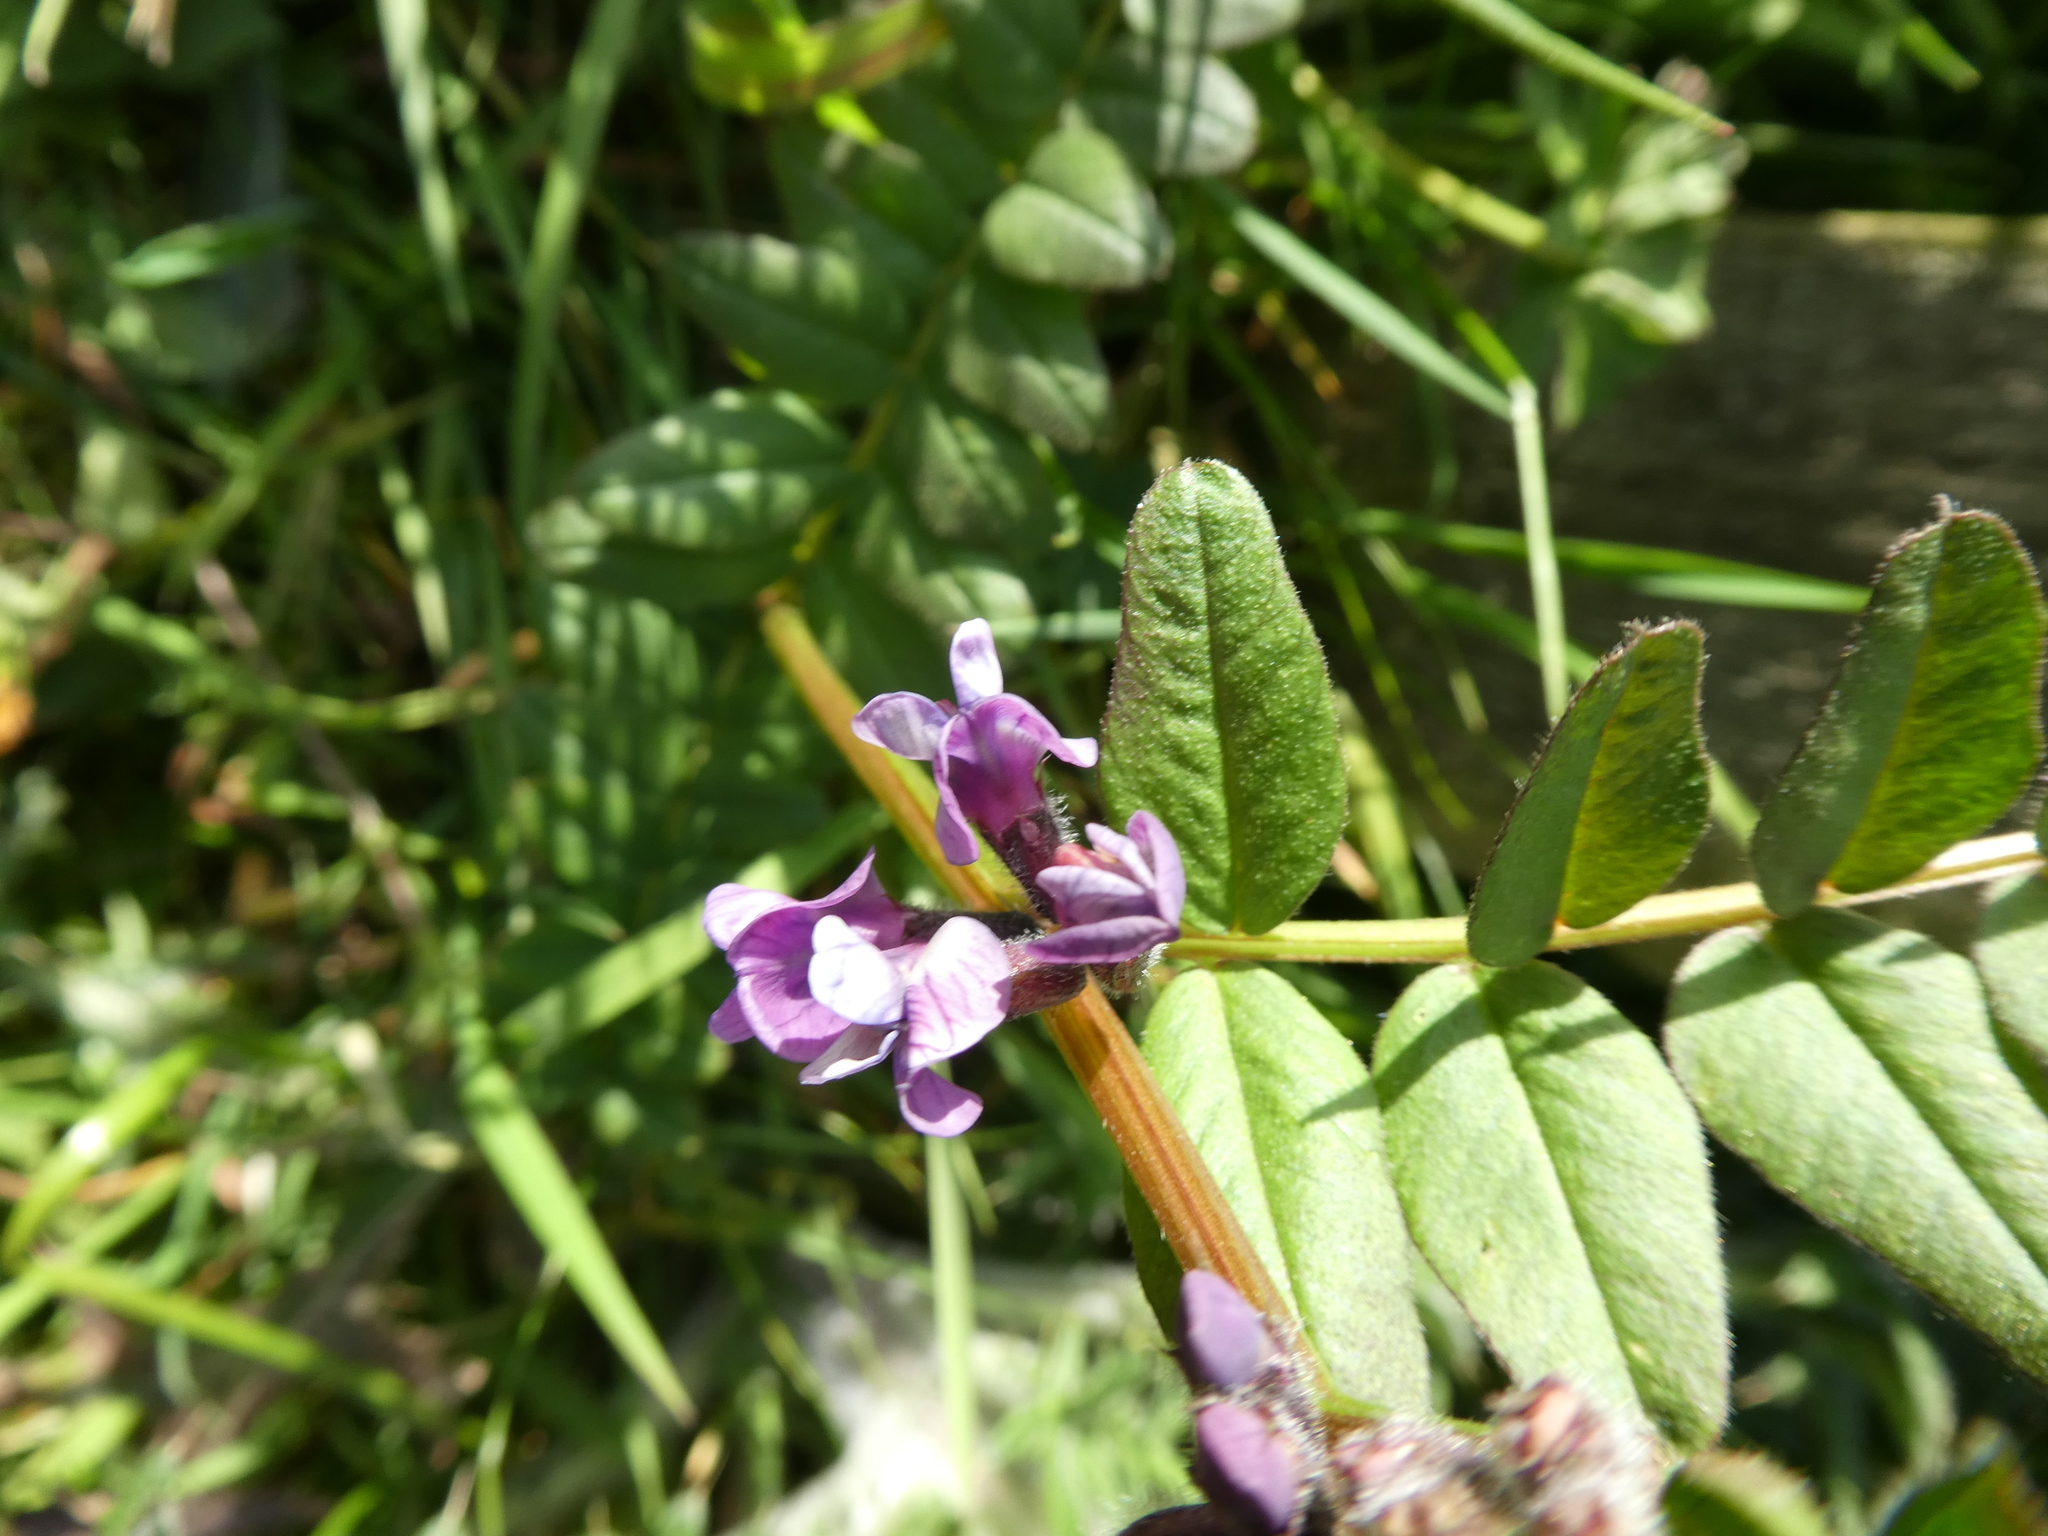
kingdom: Plantae
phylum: Tracheophyta
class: Magnoliopsida
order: Fabales
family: Fabaceae
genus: Vicia
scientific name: Vicia sepium
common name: Bush vetch
